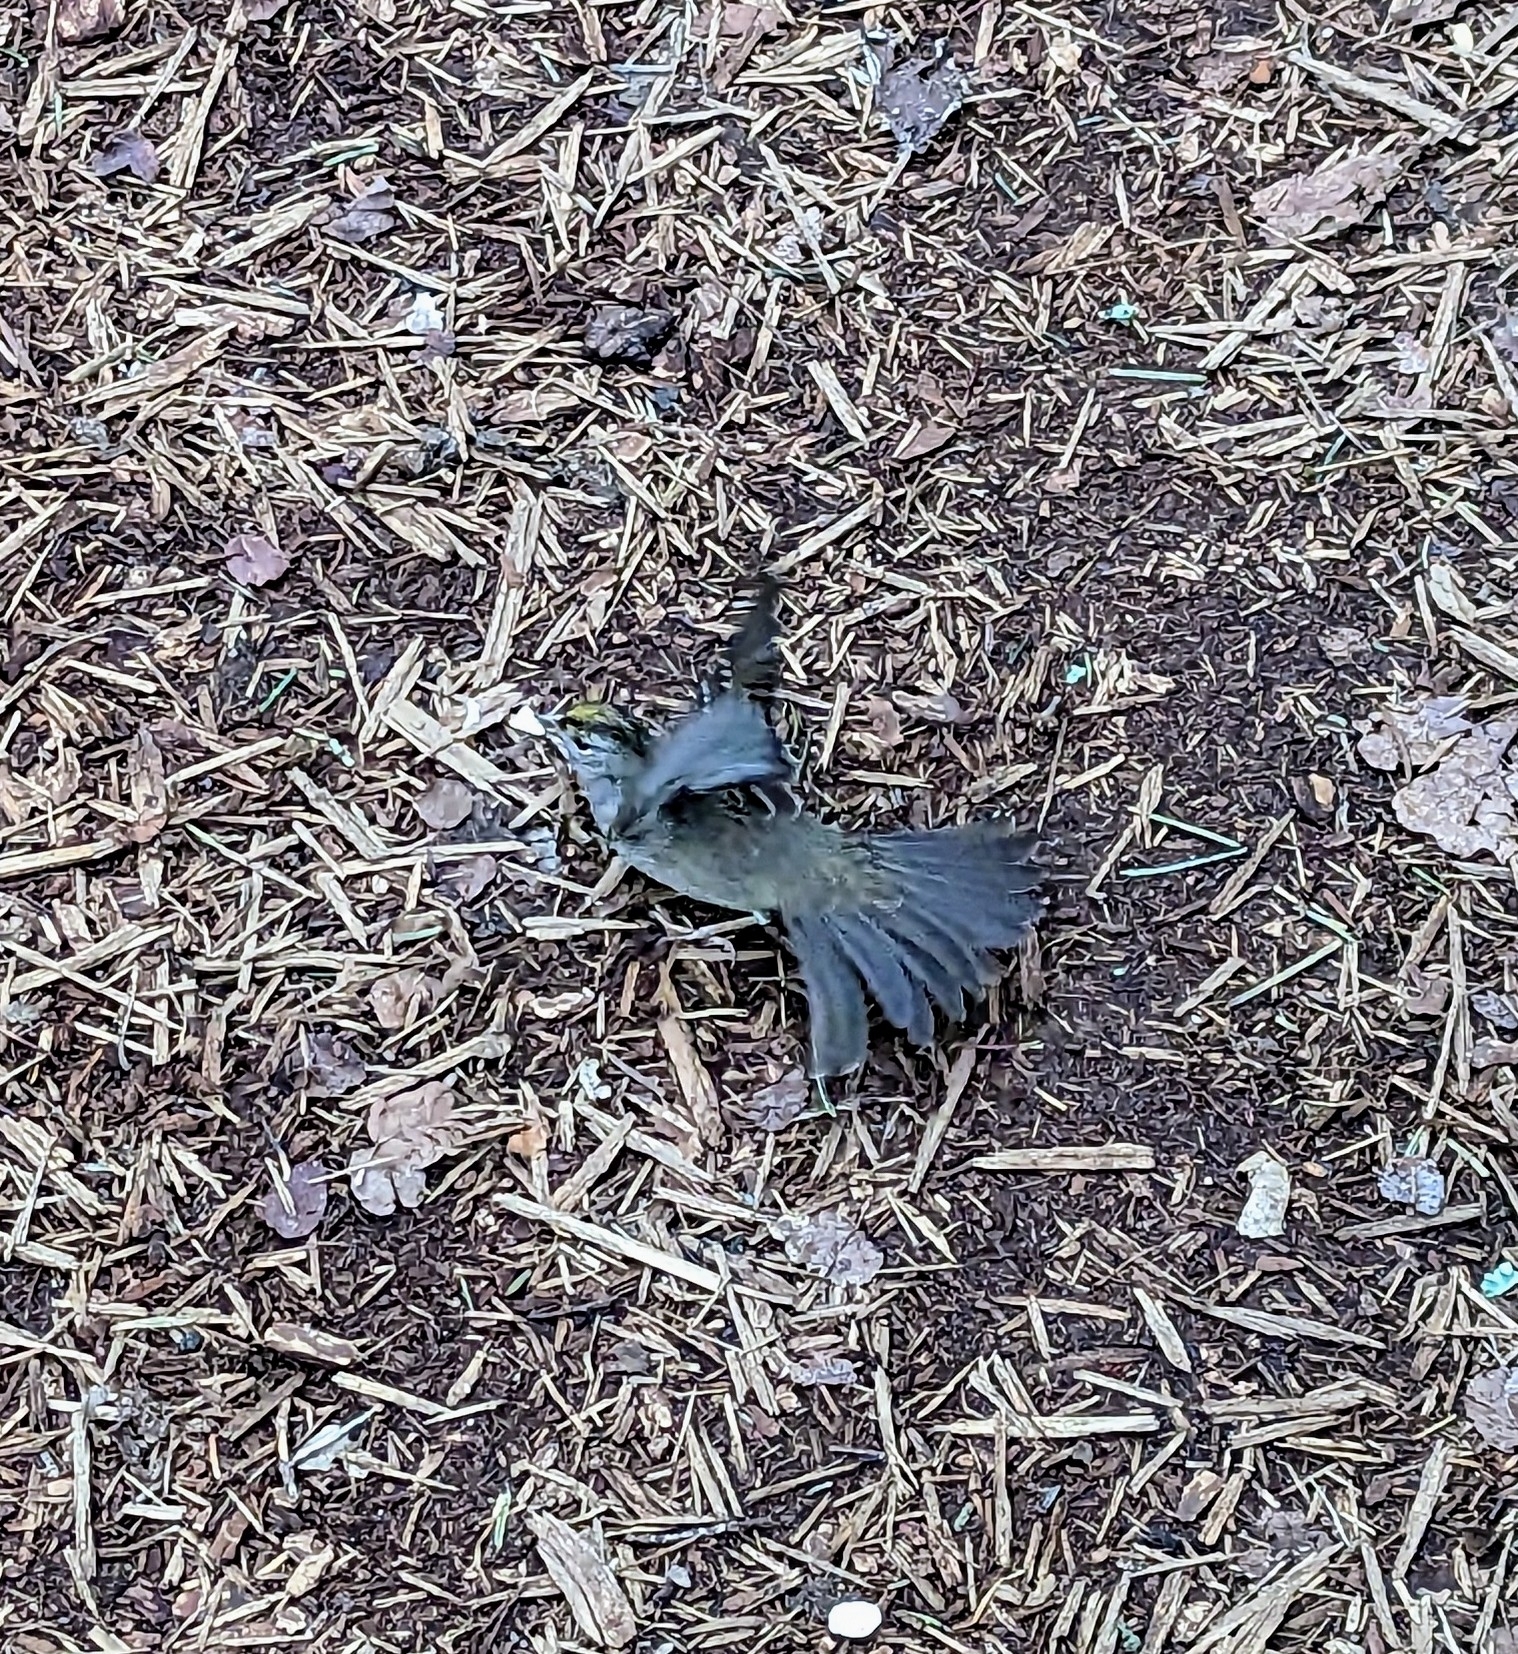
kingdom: Animalia
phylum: Chordata
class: Aves
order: Passeriformes
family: Passerellidae
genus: Zonotrichia
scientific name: Zonotrichia atricapilla
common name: Golden-crowned sparrow
